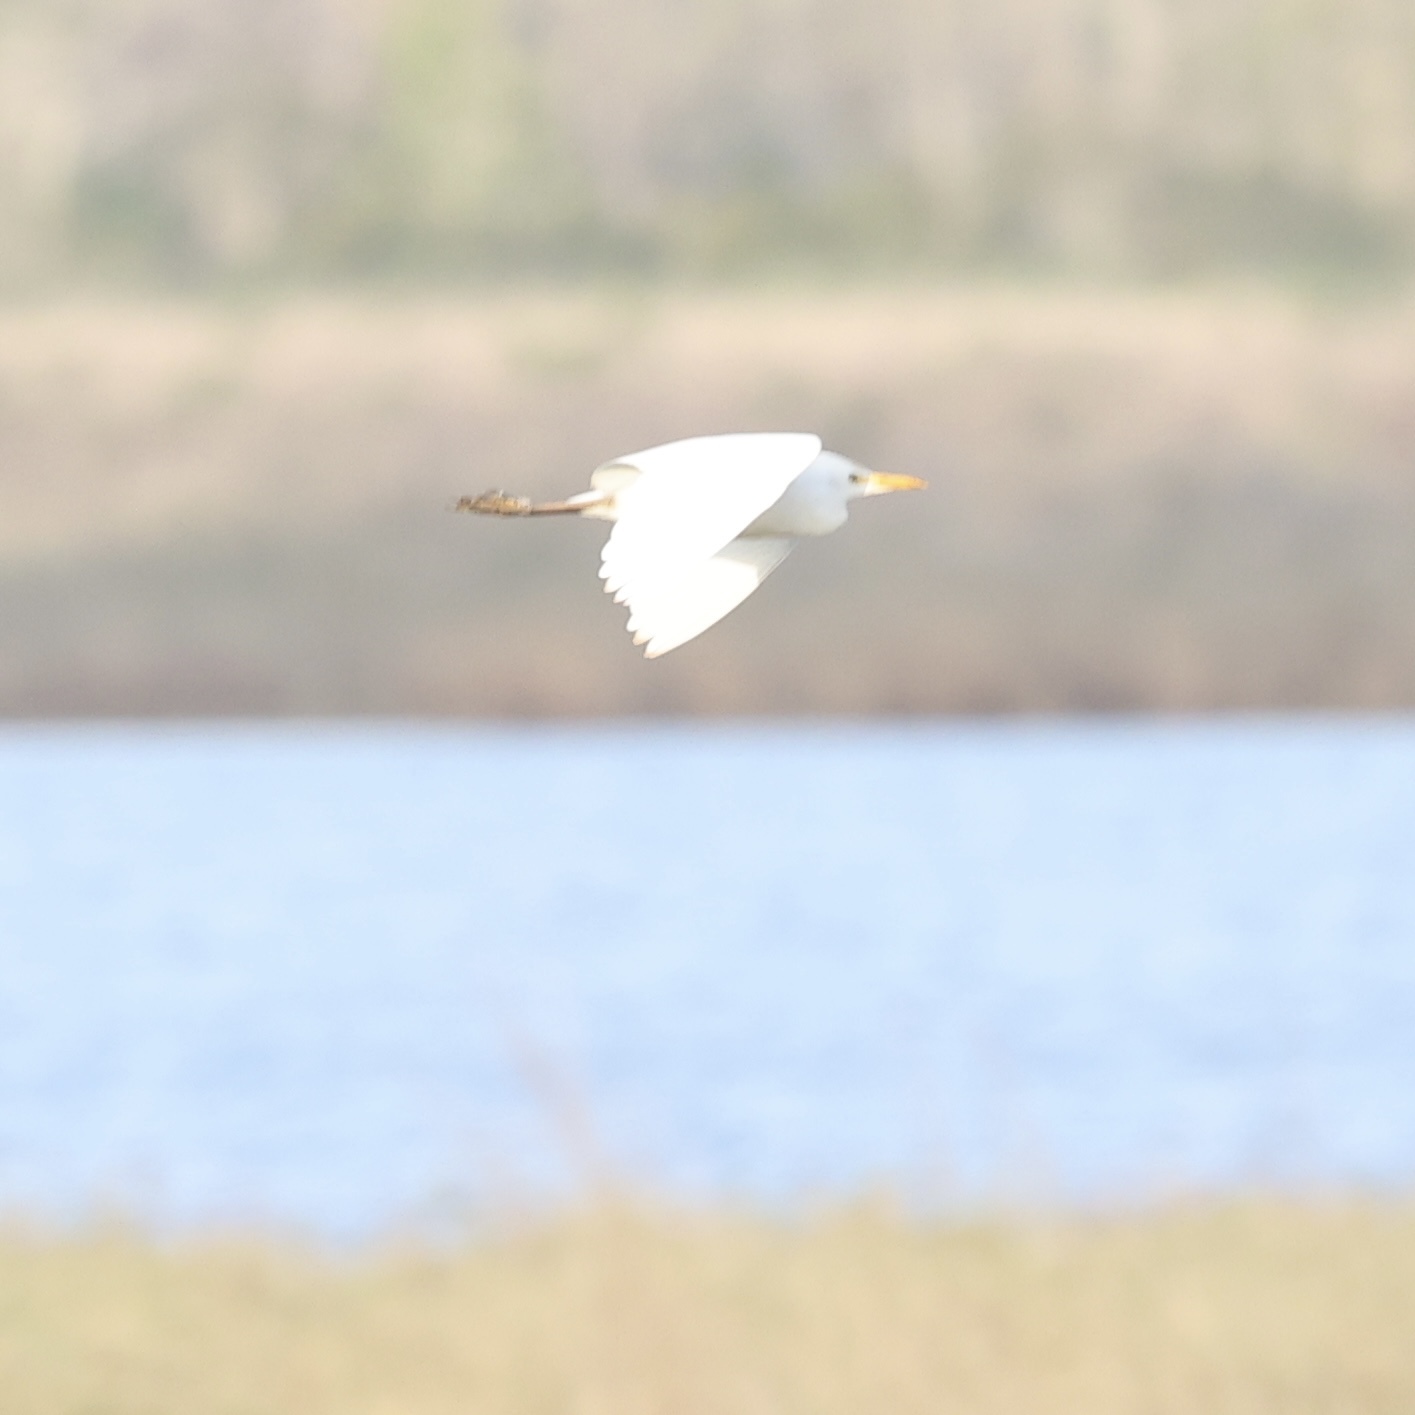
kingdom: Animalia
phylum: Chordata
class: Aves
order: Pelecaniformes
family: Ardeidae
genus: Bubulcus
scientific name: Bubulcus ibis
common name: Cattle egret
